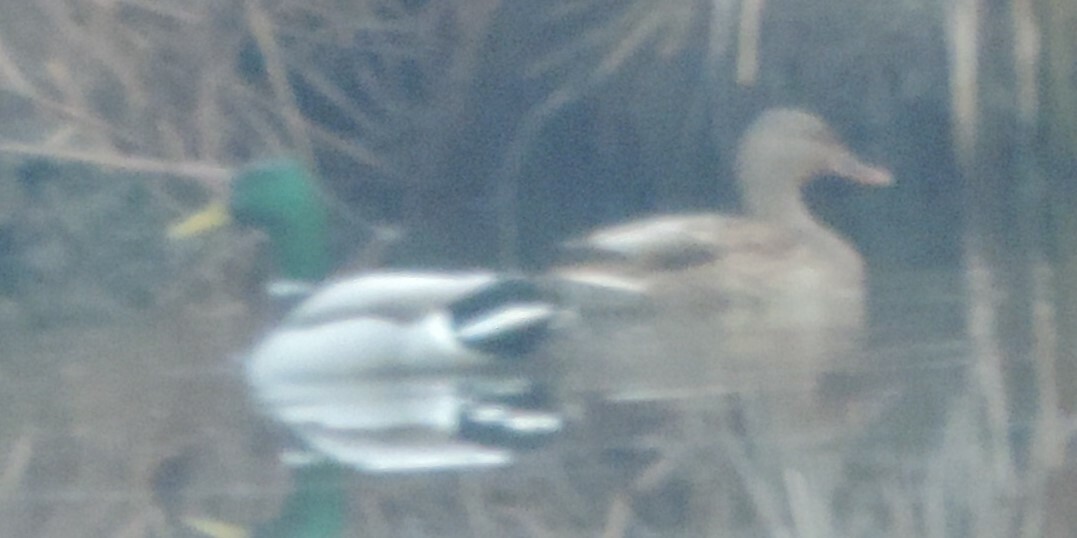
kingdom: Animalia
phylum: Chordata
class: Aves
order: Anseriformes
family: Anatidae
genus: Anas
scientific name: Anas platyrhynchos
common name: Mallard
